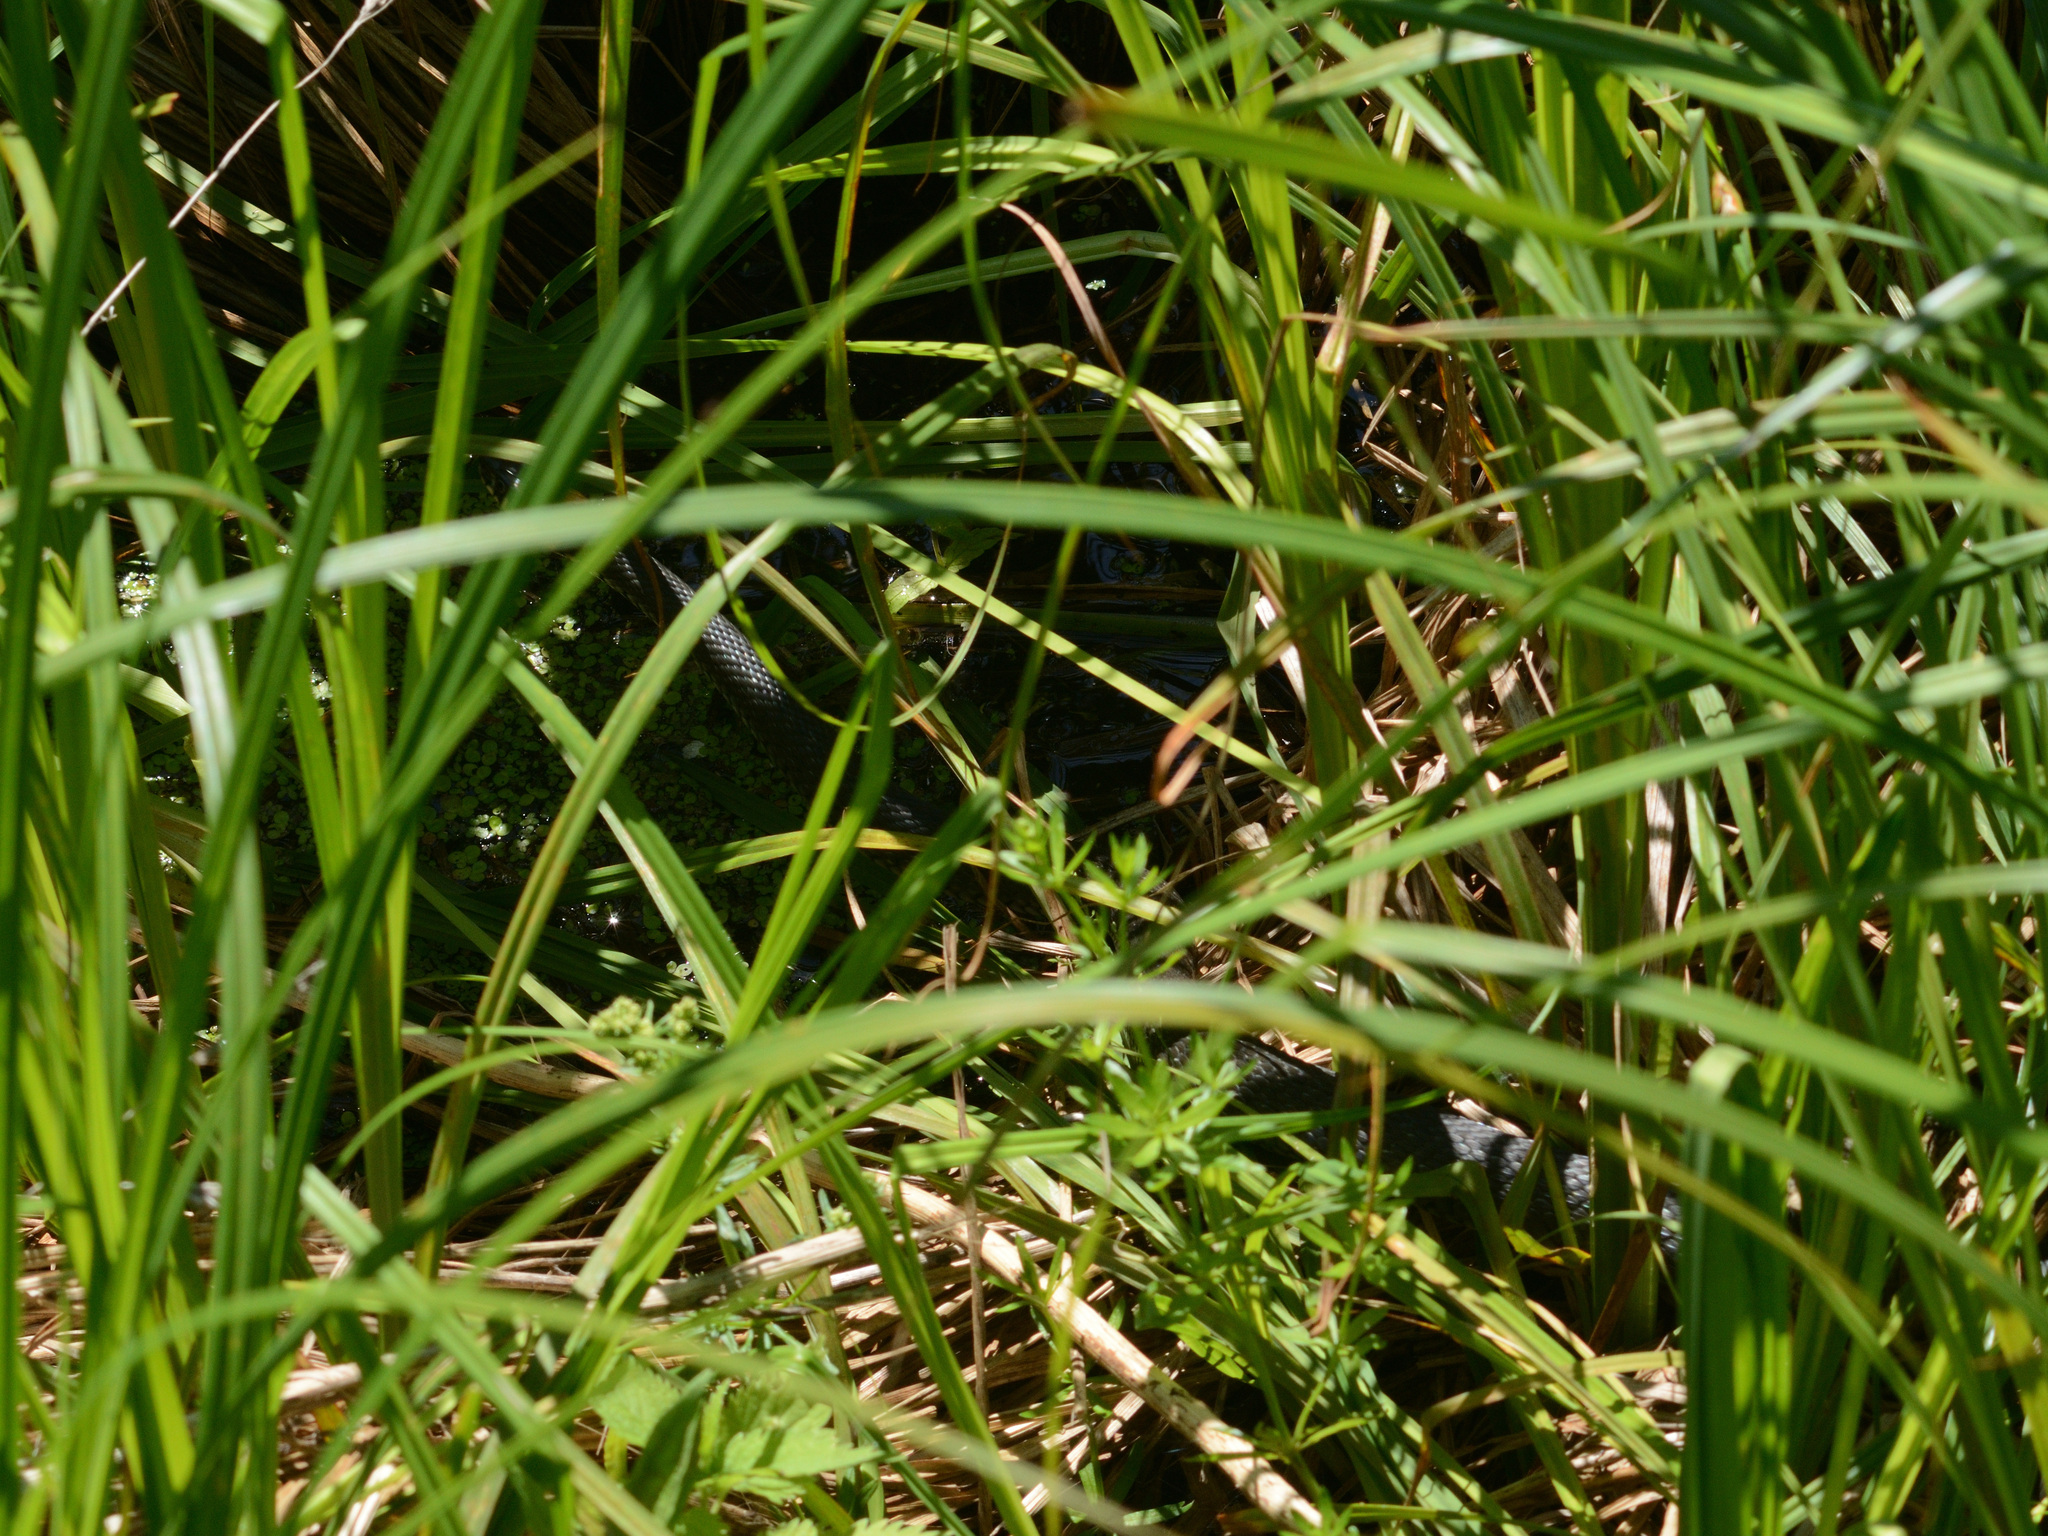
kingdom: Animalia
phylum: Chordata
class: Squamata
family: Colubridae
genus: Natrix
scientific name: Natrix natrix
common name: Grass snake
